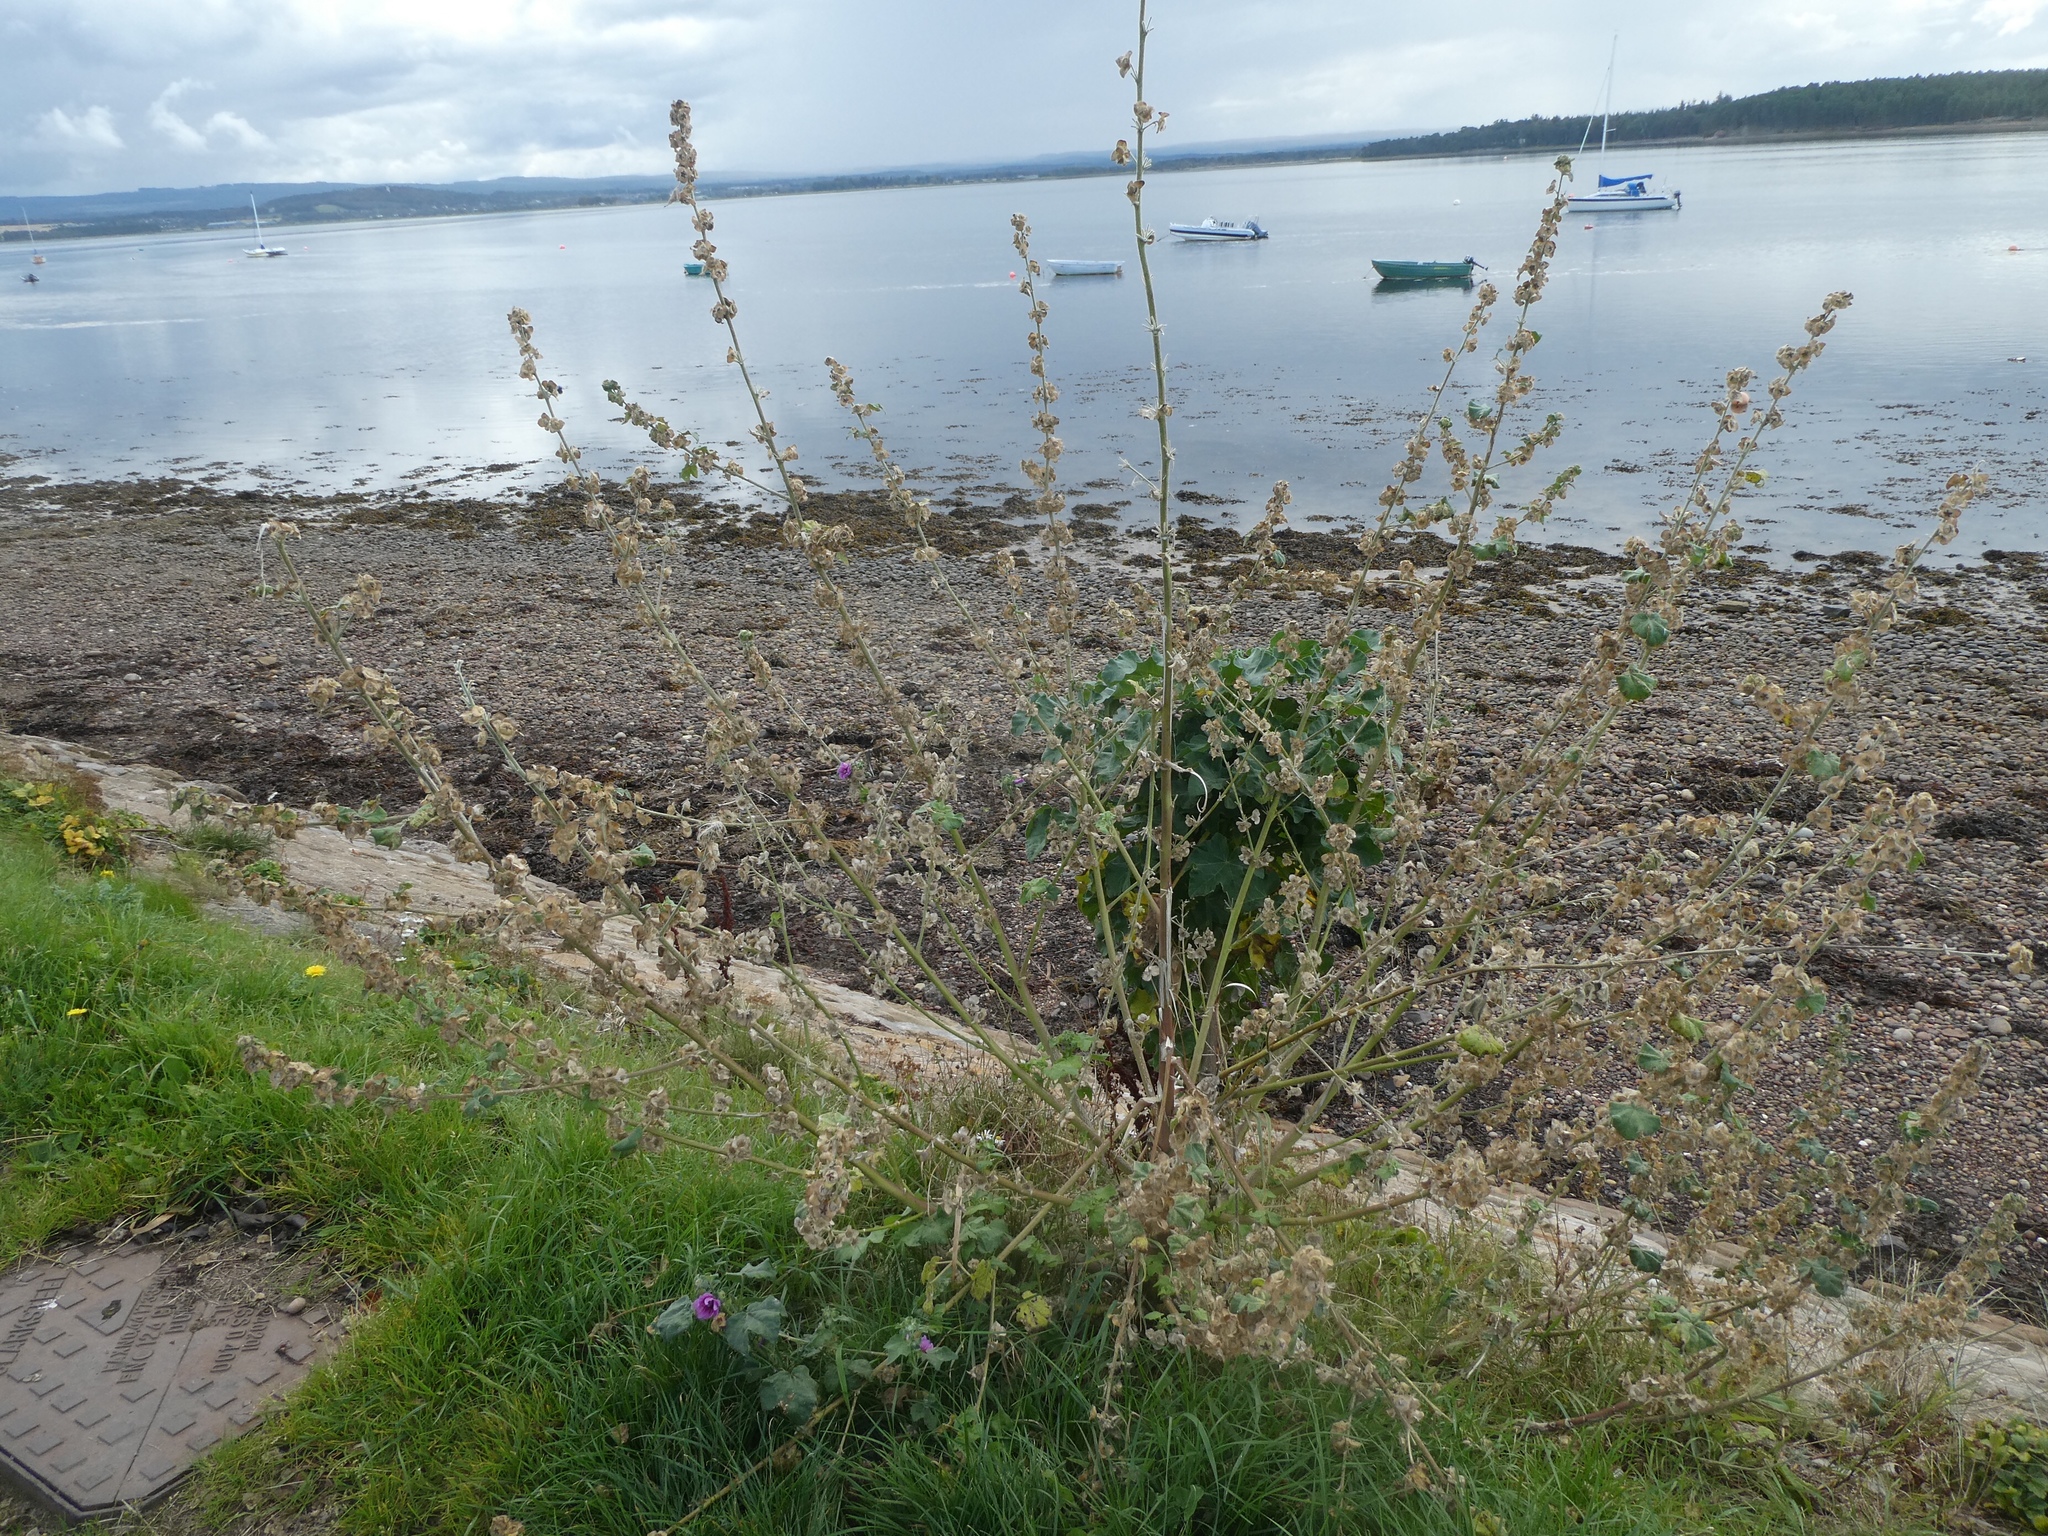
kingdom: Plantae
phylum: Tracheophyta
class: Magnoliopsida
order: Malvales
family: Malvaceae
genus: Malva
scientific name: Malva arborea
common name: Tree mallow
